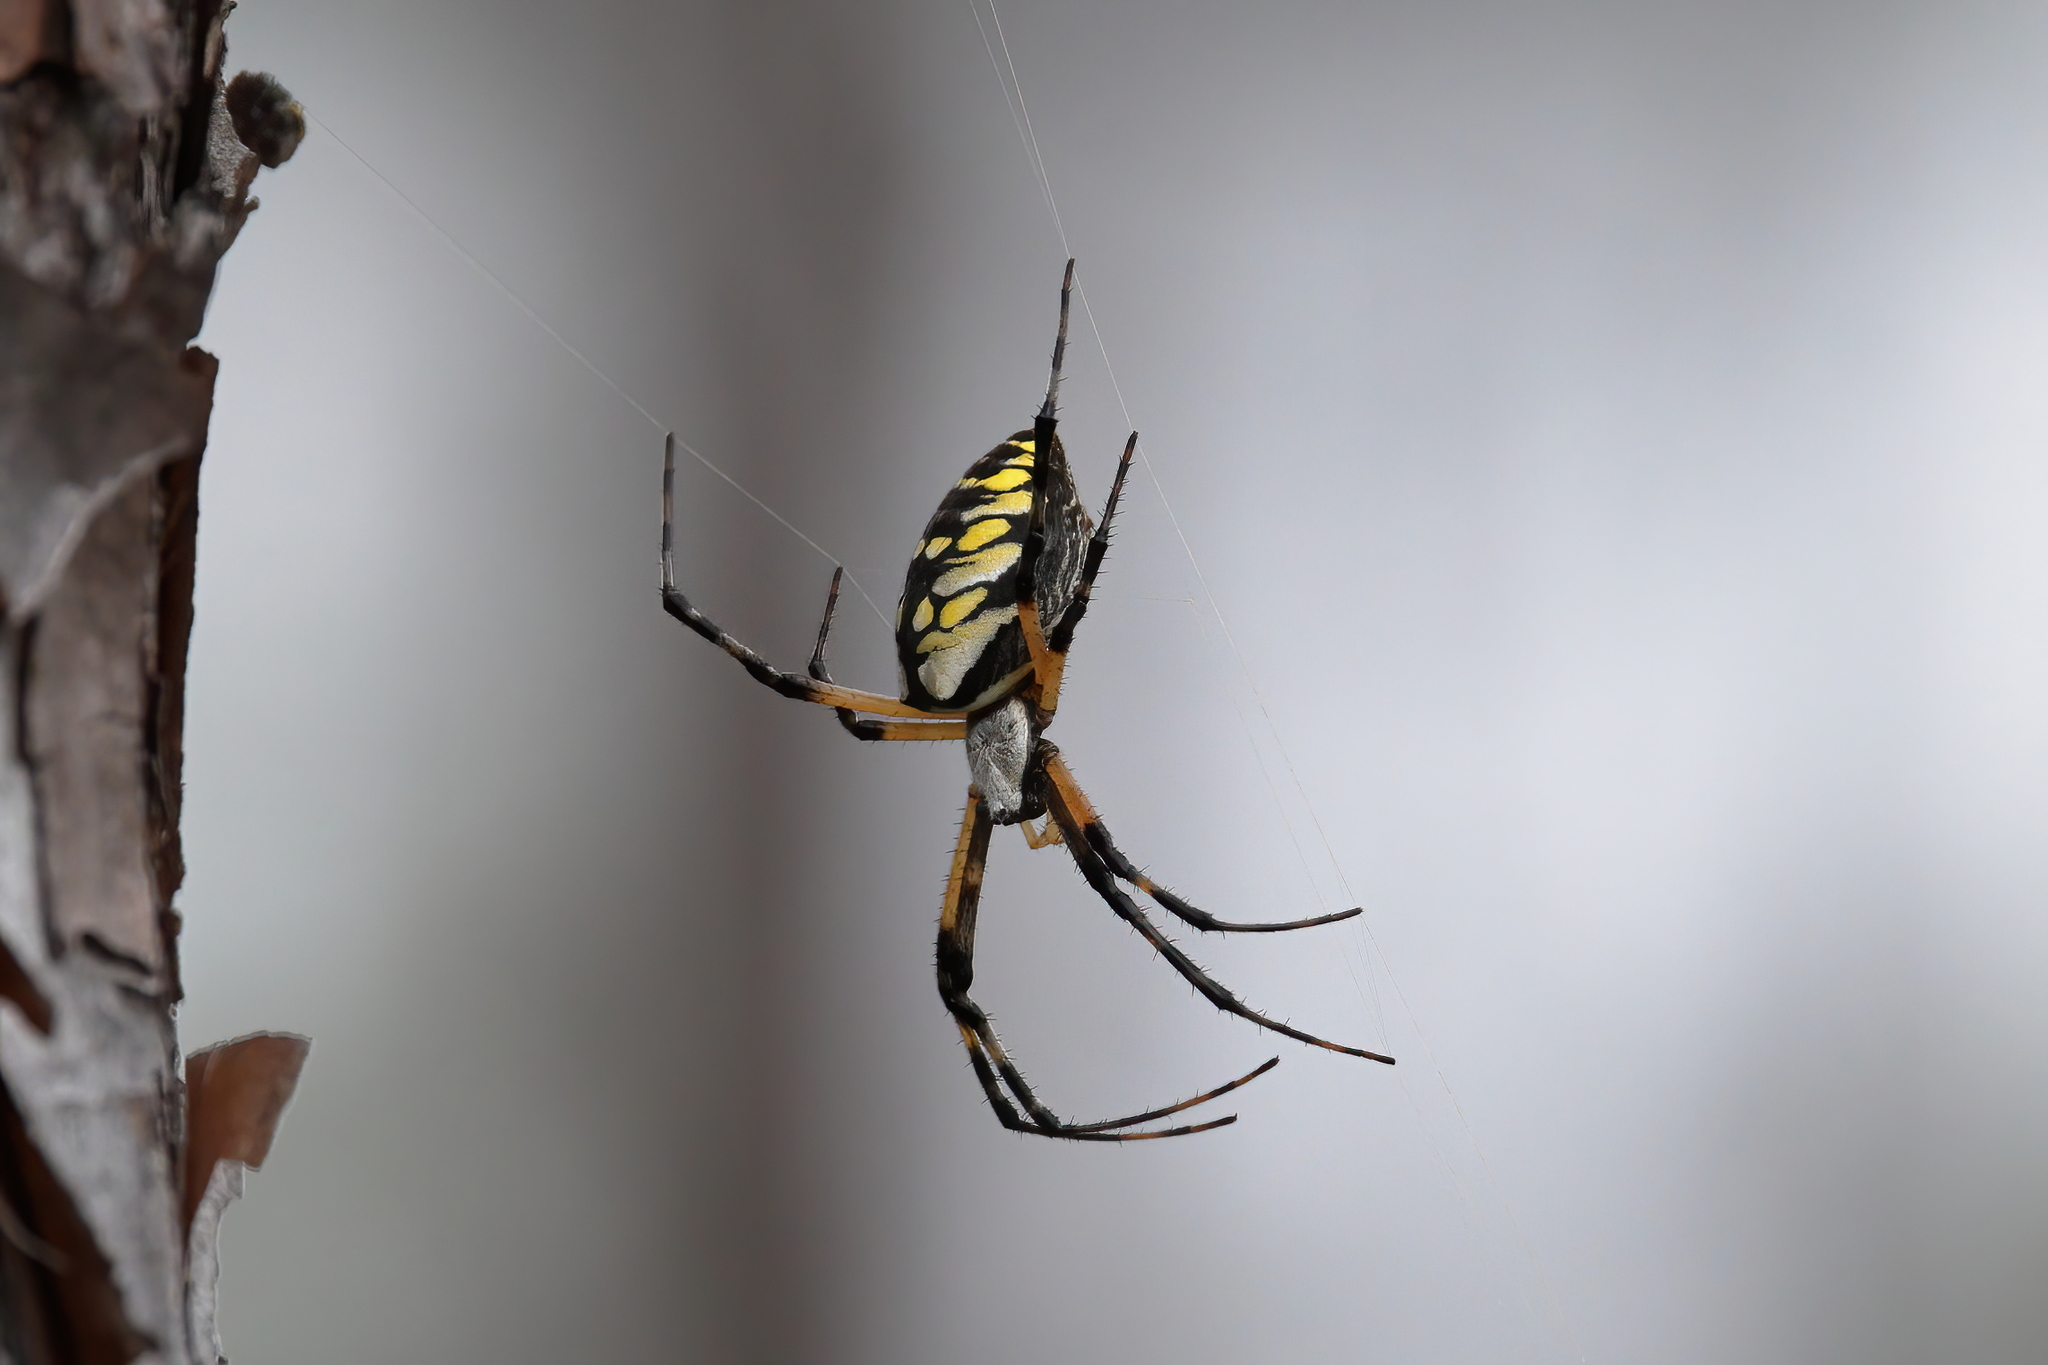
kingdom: Animalia
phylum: Arthropoda
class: Arachnida
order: Araneae
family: Araneidae
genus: Argiope
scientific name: Argiope aurantia
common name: Orb weavers
